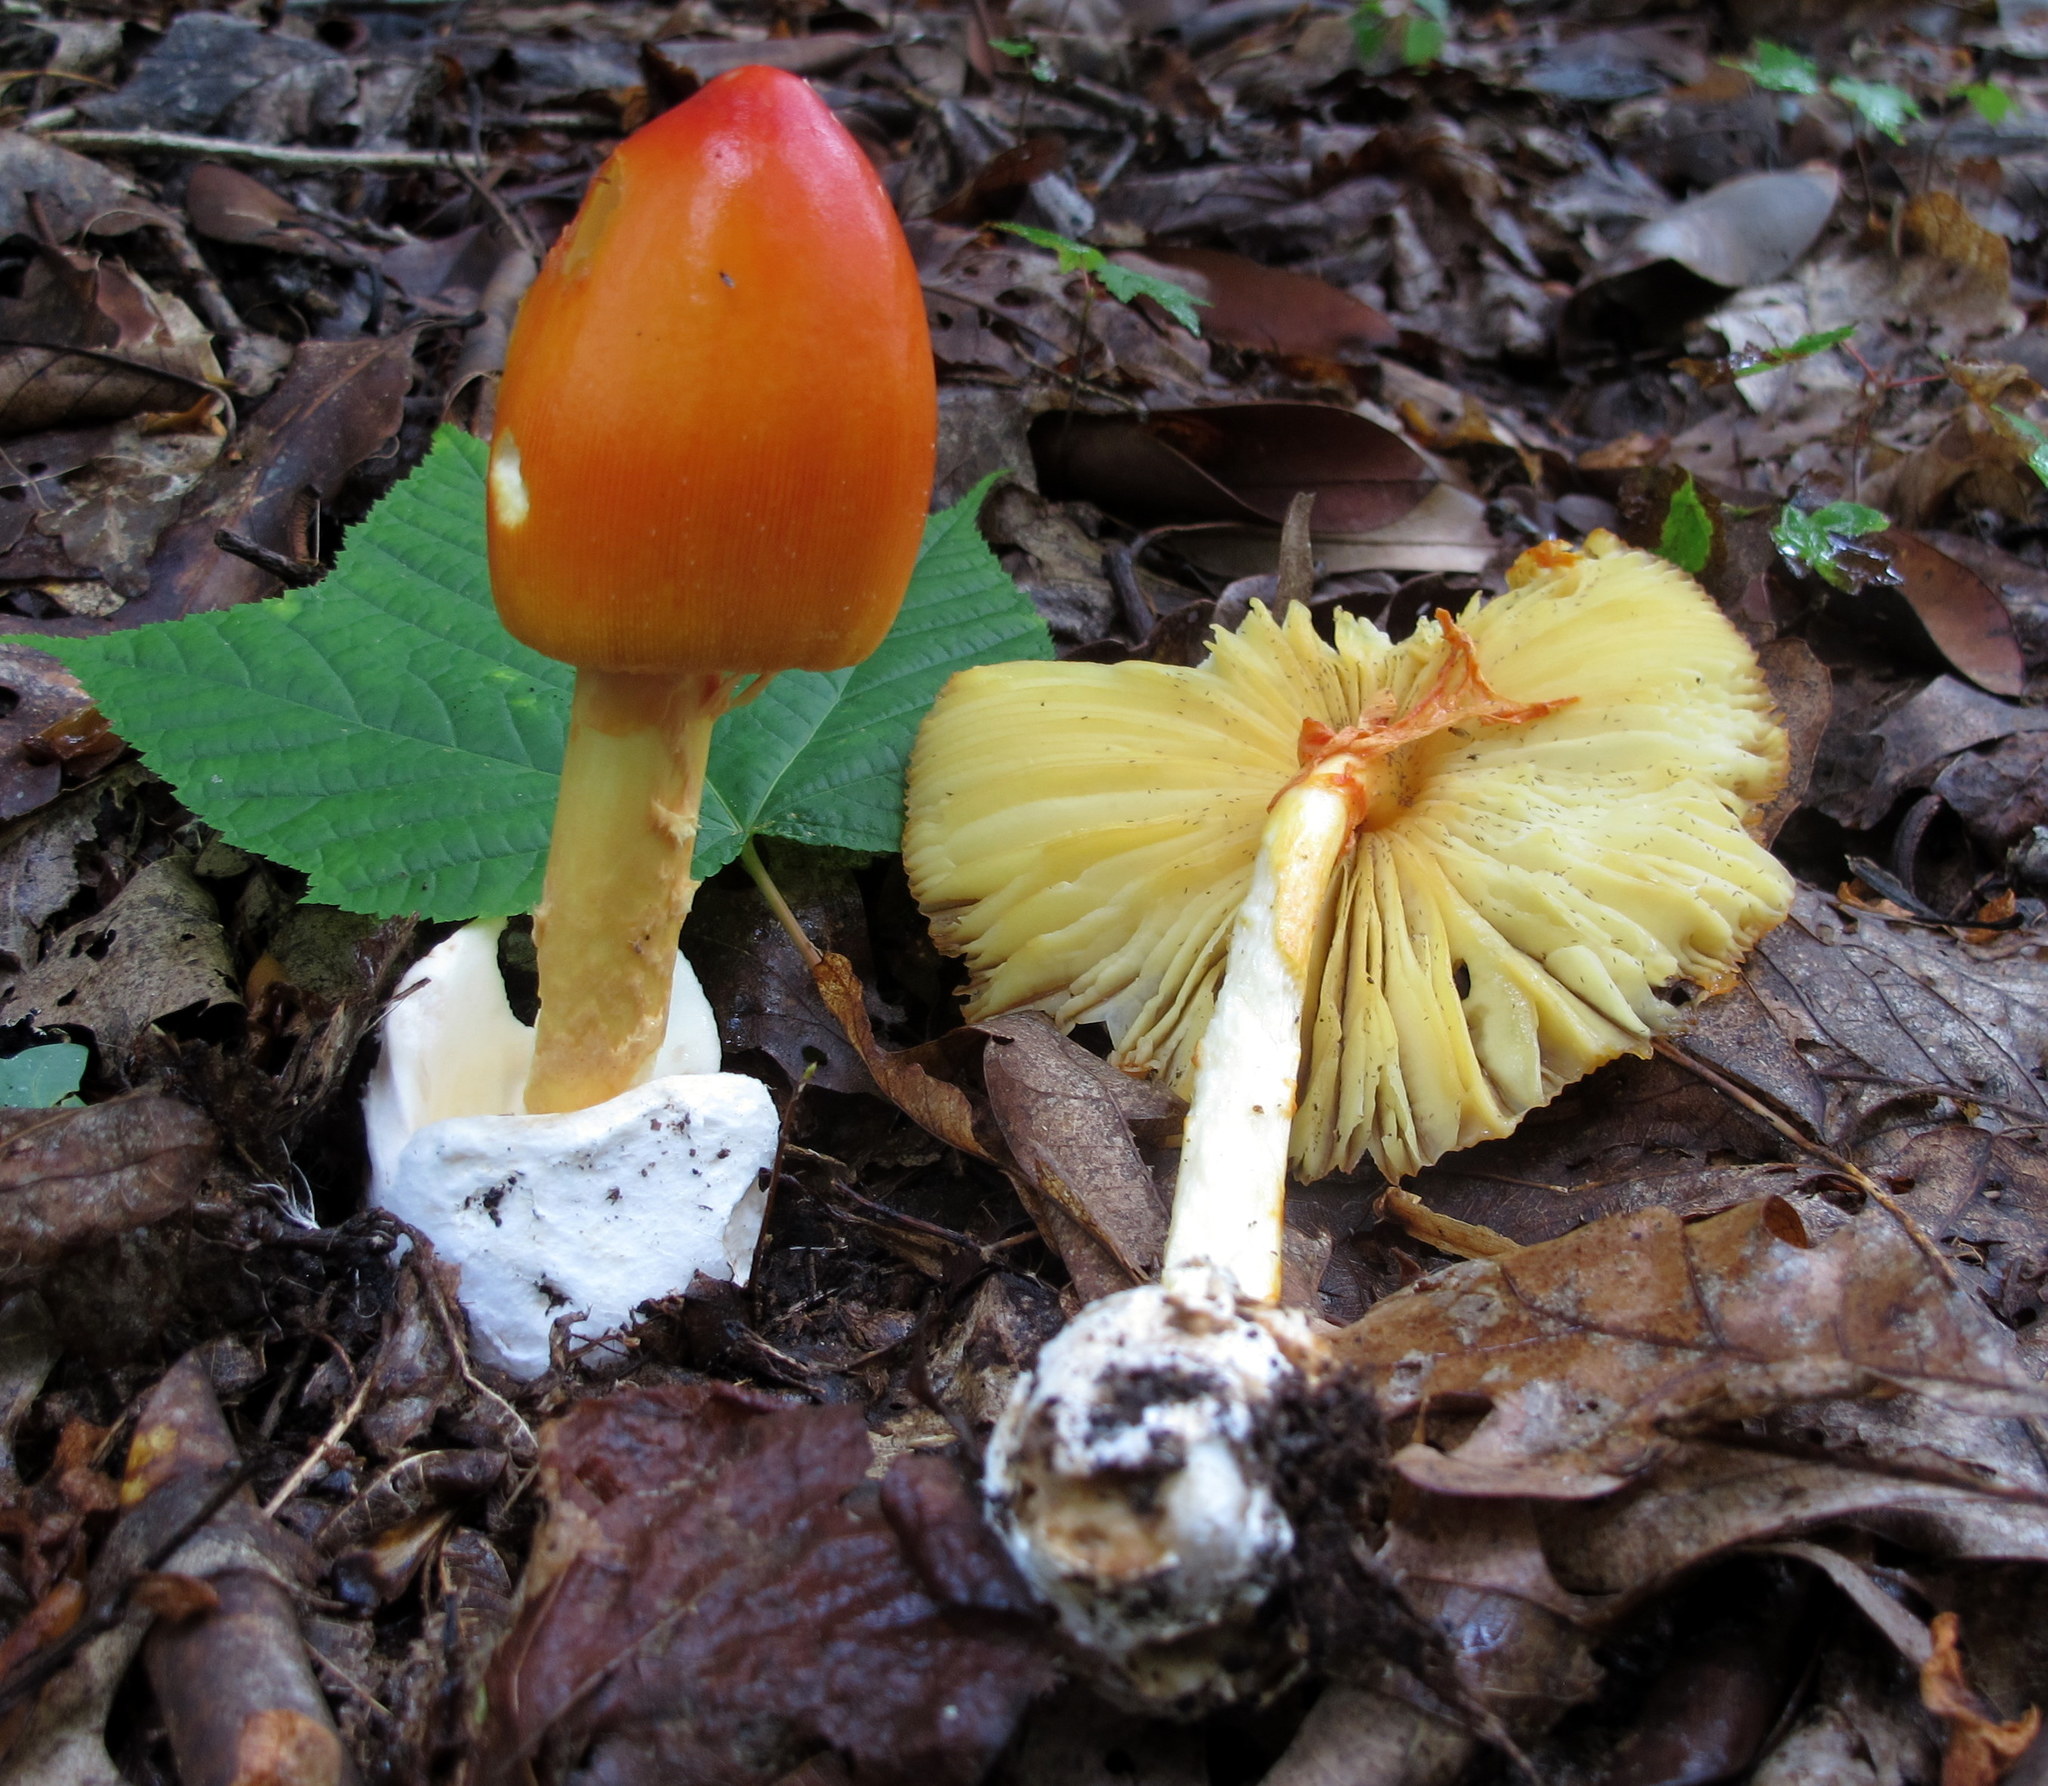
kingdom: Fungi
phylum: Basidiomycota
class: Agaricomycetes
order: Agaricales
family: Amanitaceae
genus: Amanita
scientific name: Amanita jacksonii
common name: Jackson's slender caesar
